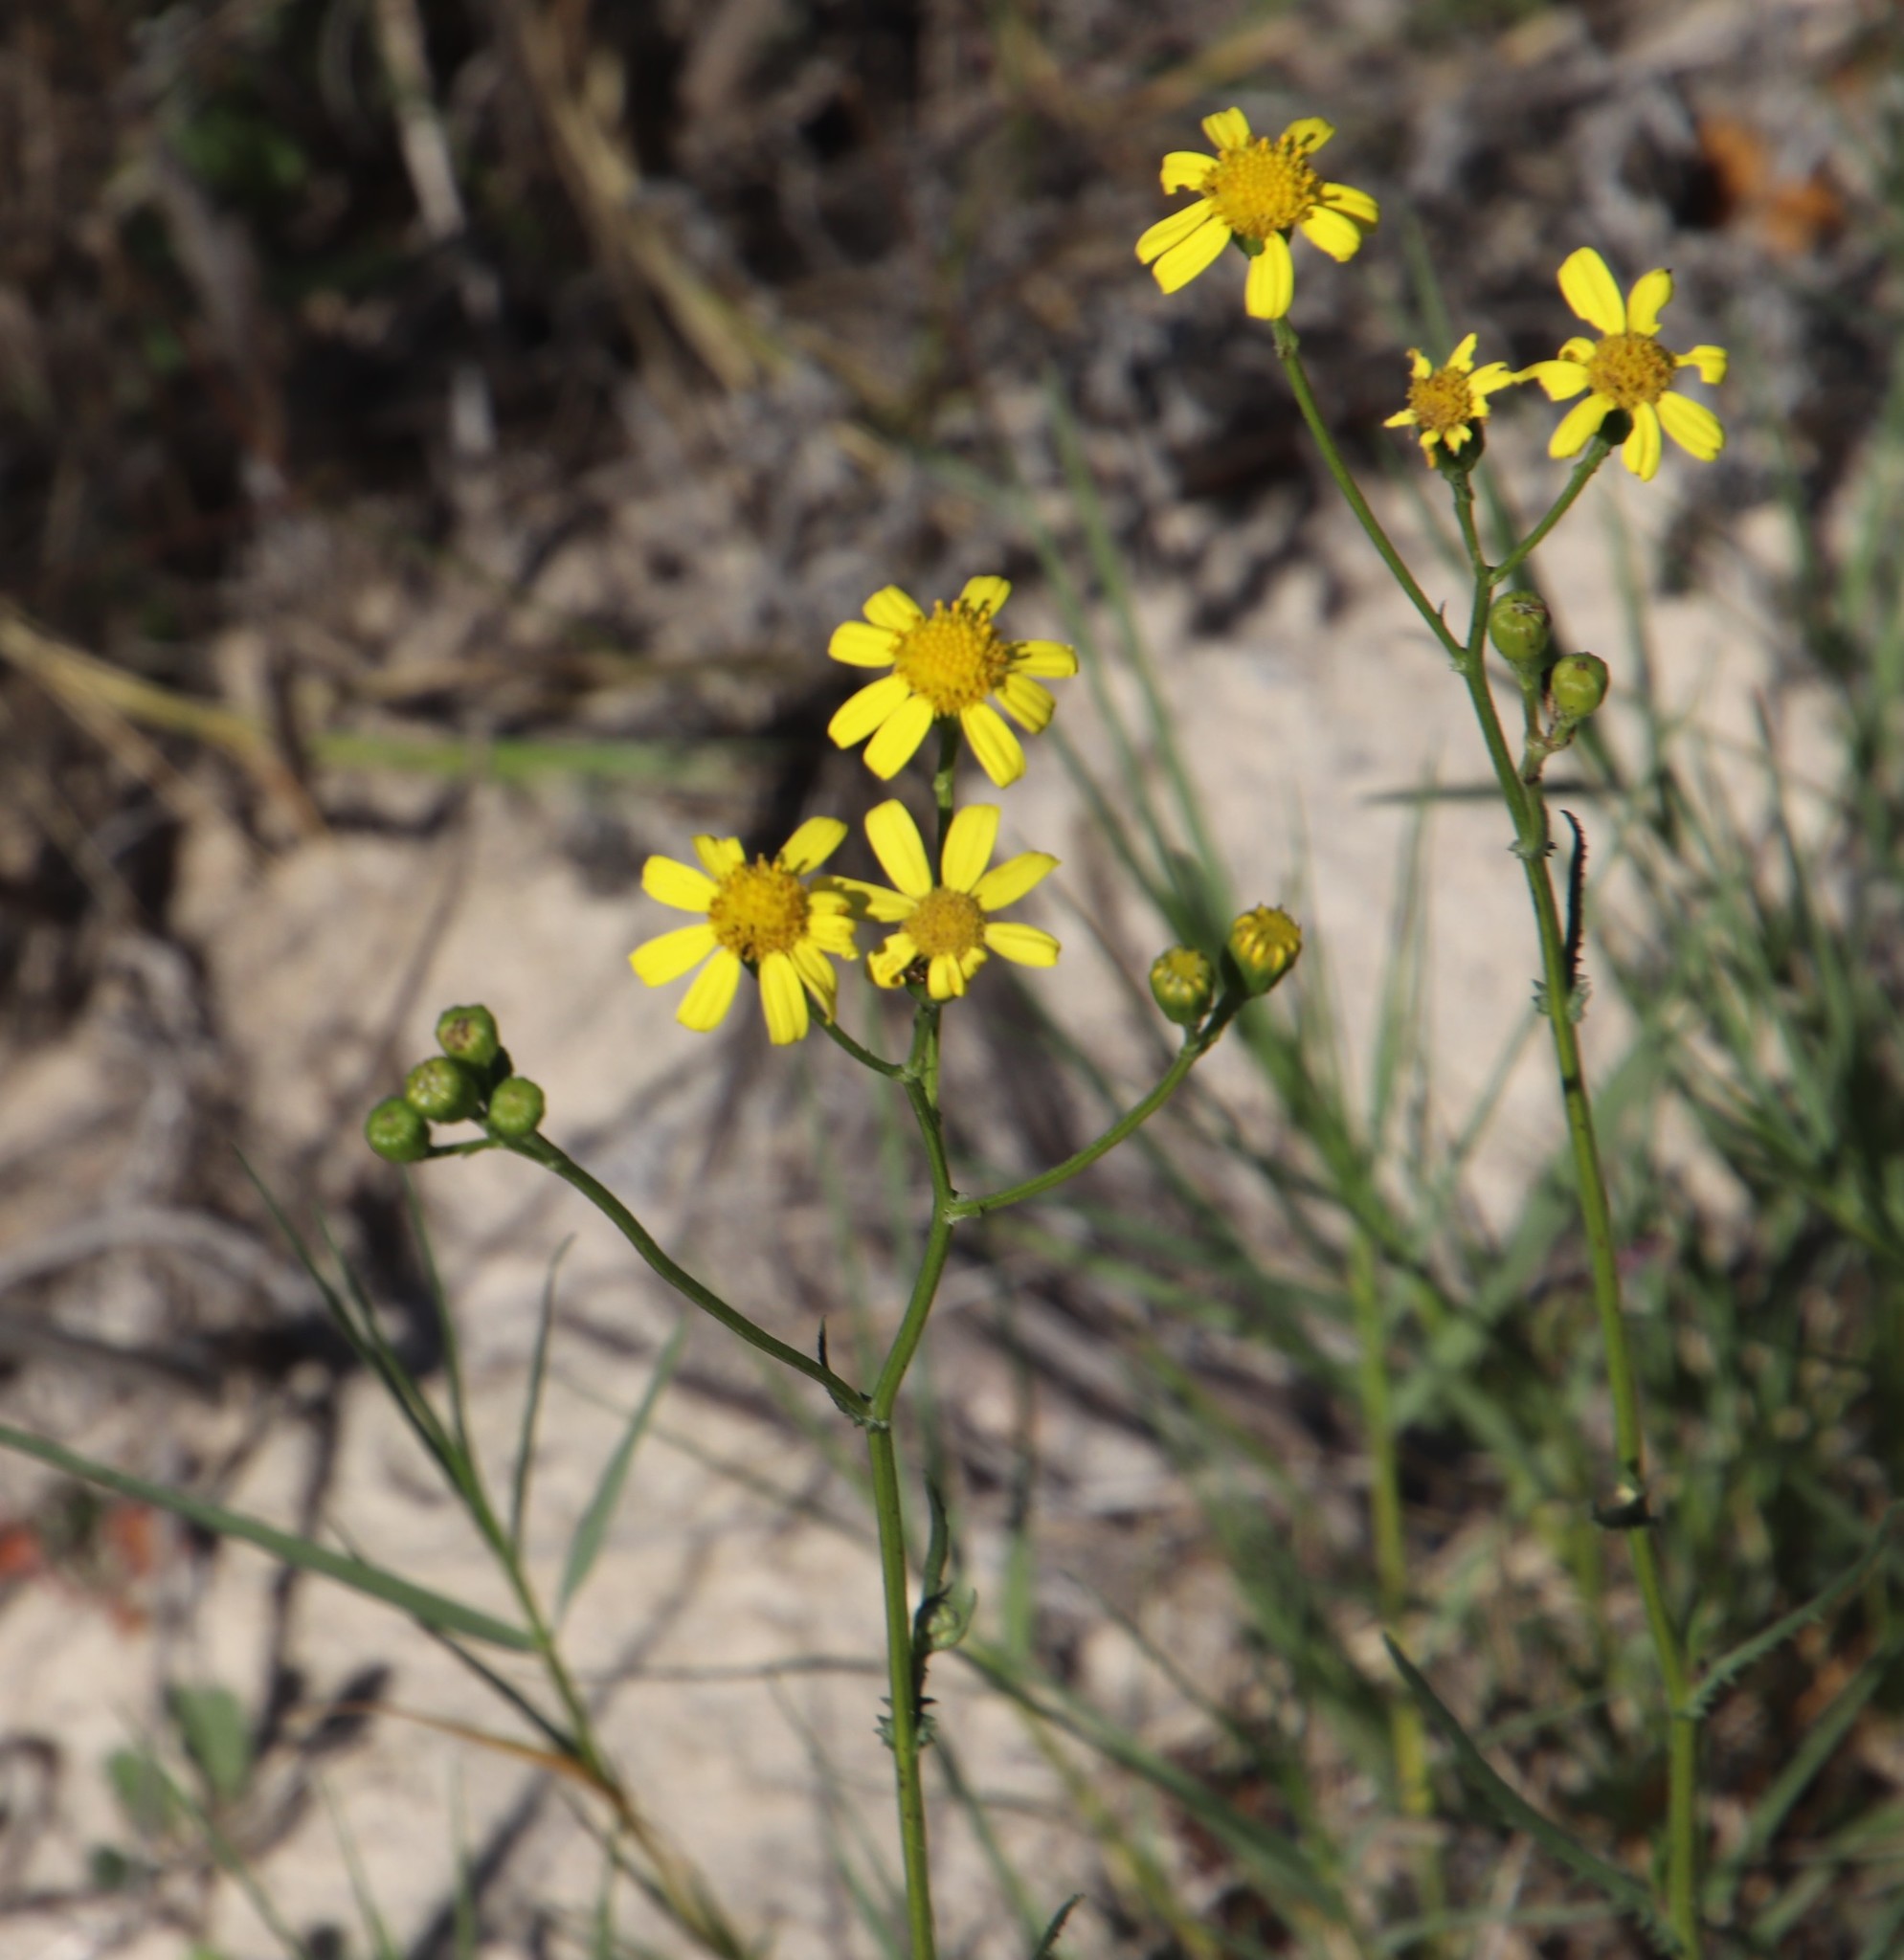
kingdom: Plantae
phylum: Tracheophyta
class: Magnoliopsida
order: Asterales
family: Asteraceae
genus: Senecio
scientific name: Senecio burchellii
